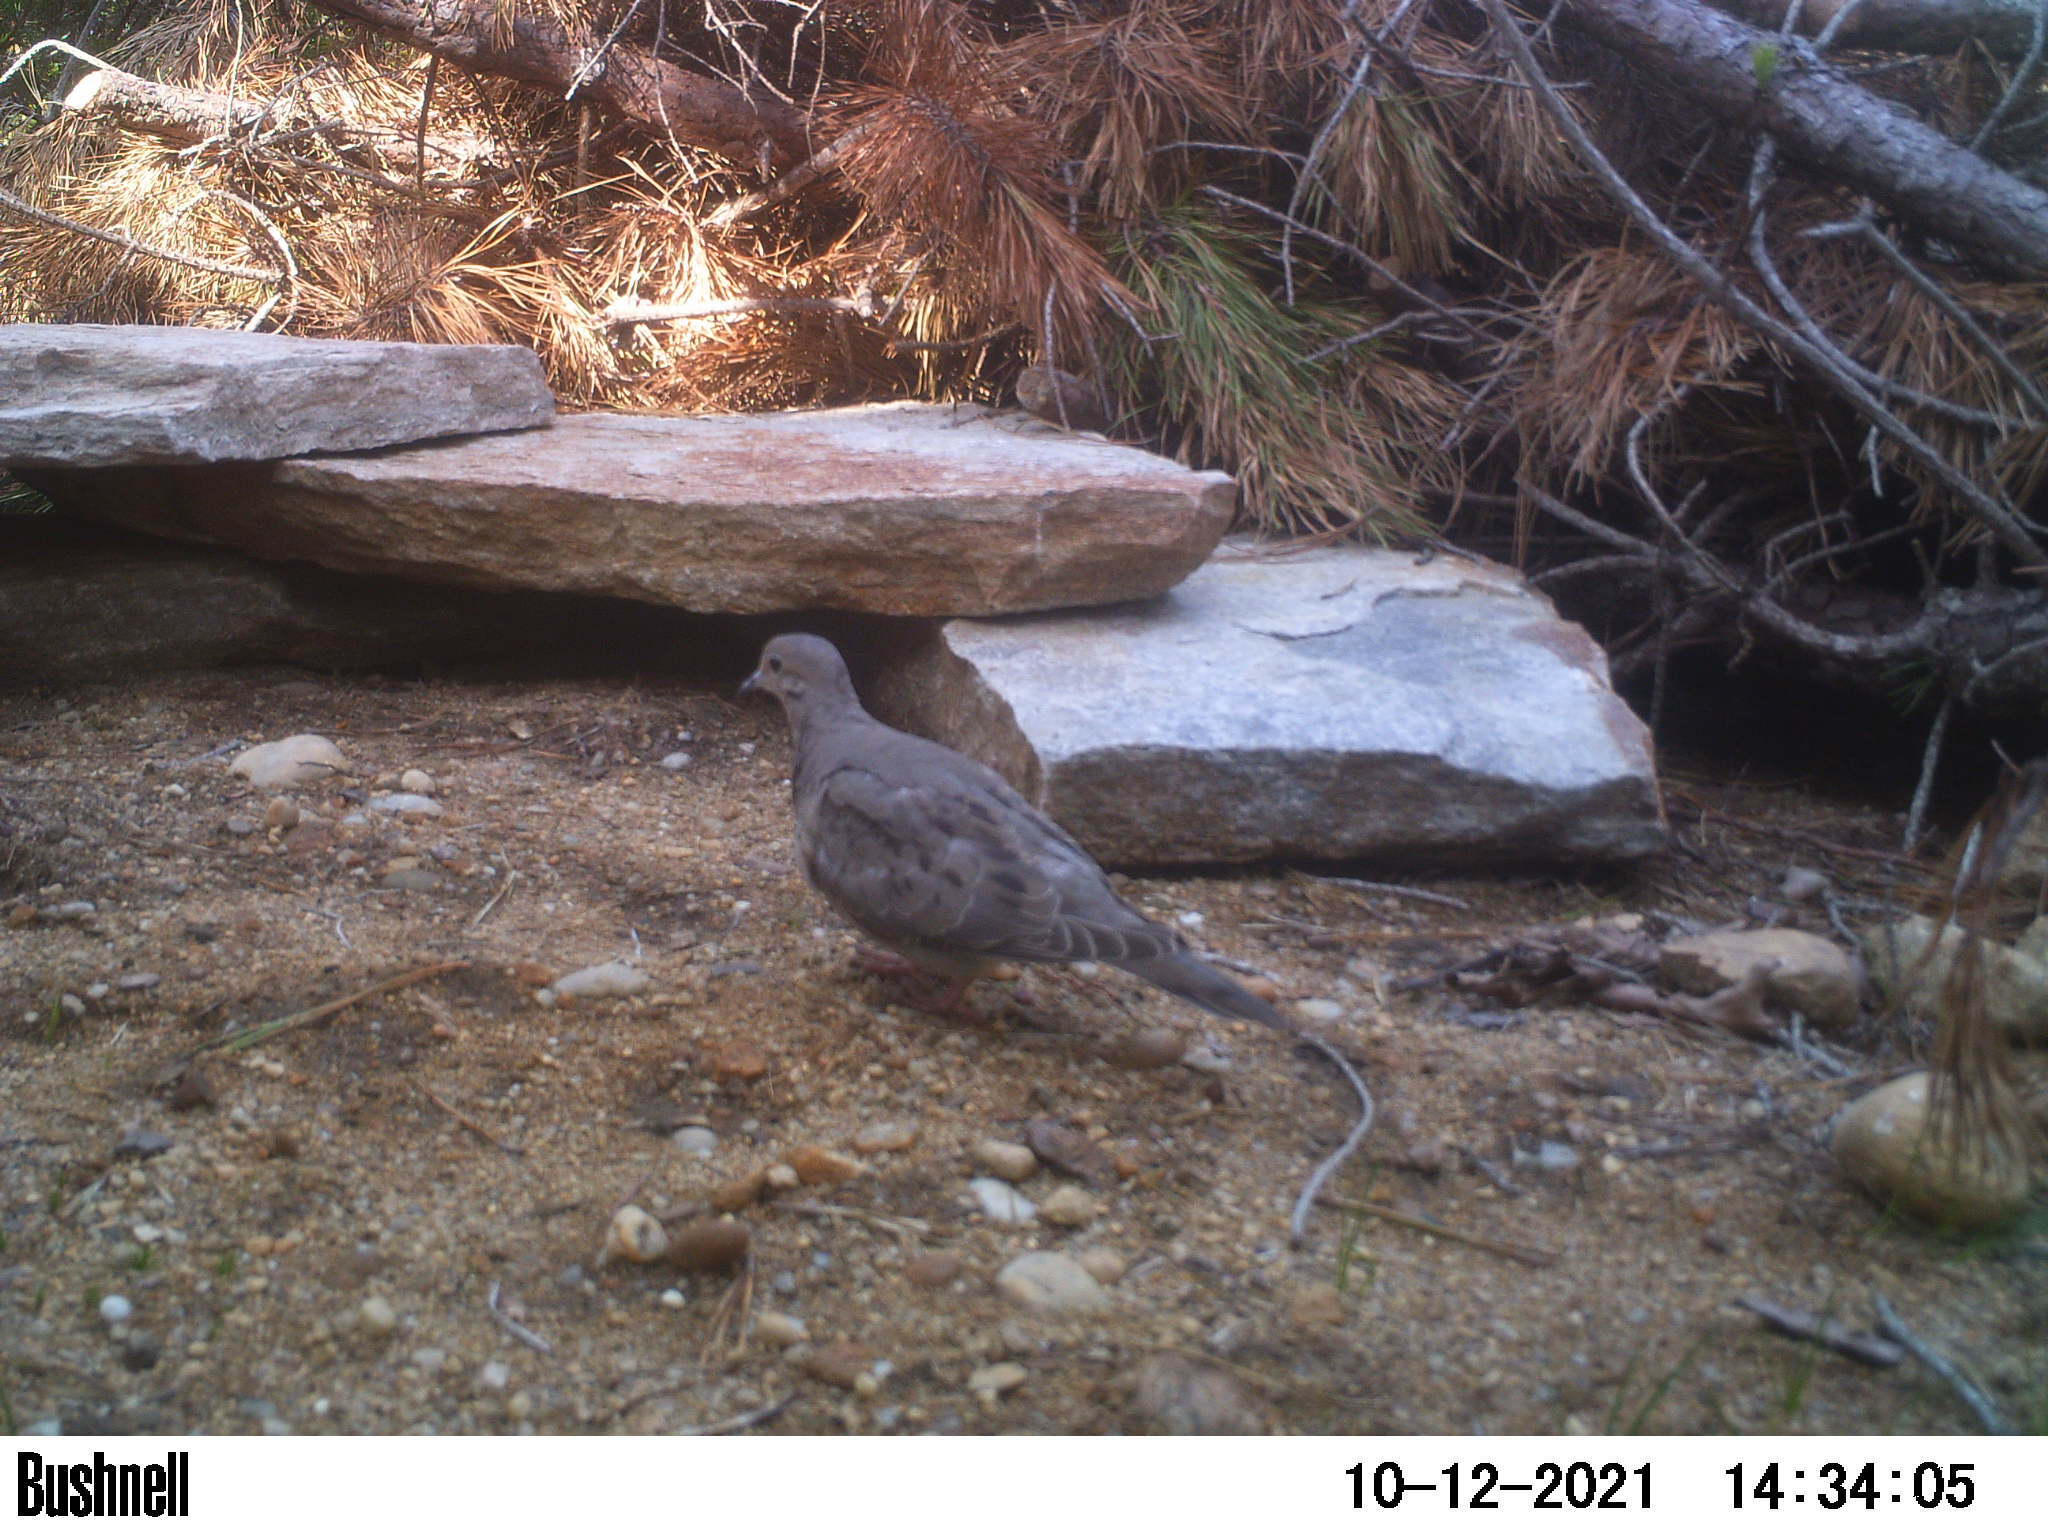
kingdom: Animalia
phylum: Chordata
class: Aves
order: Columbiformes
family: Columbidae
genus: Zenaida
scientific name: Zenaida macroura
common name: Mourning dove
